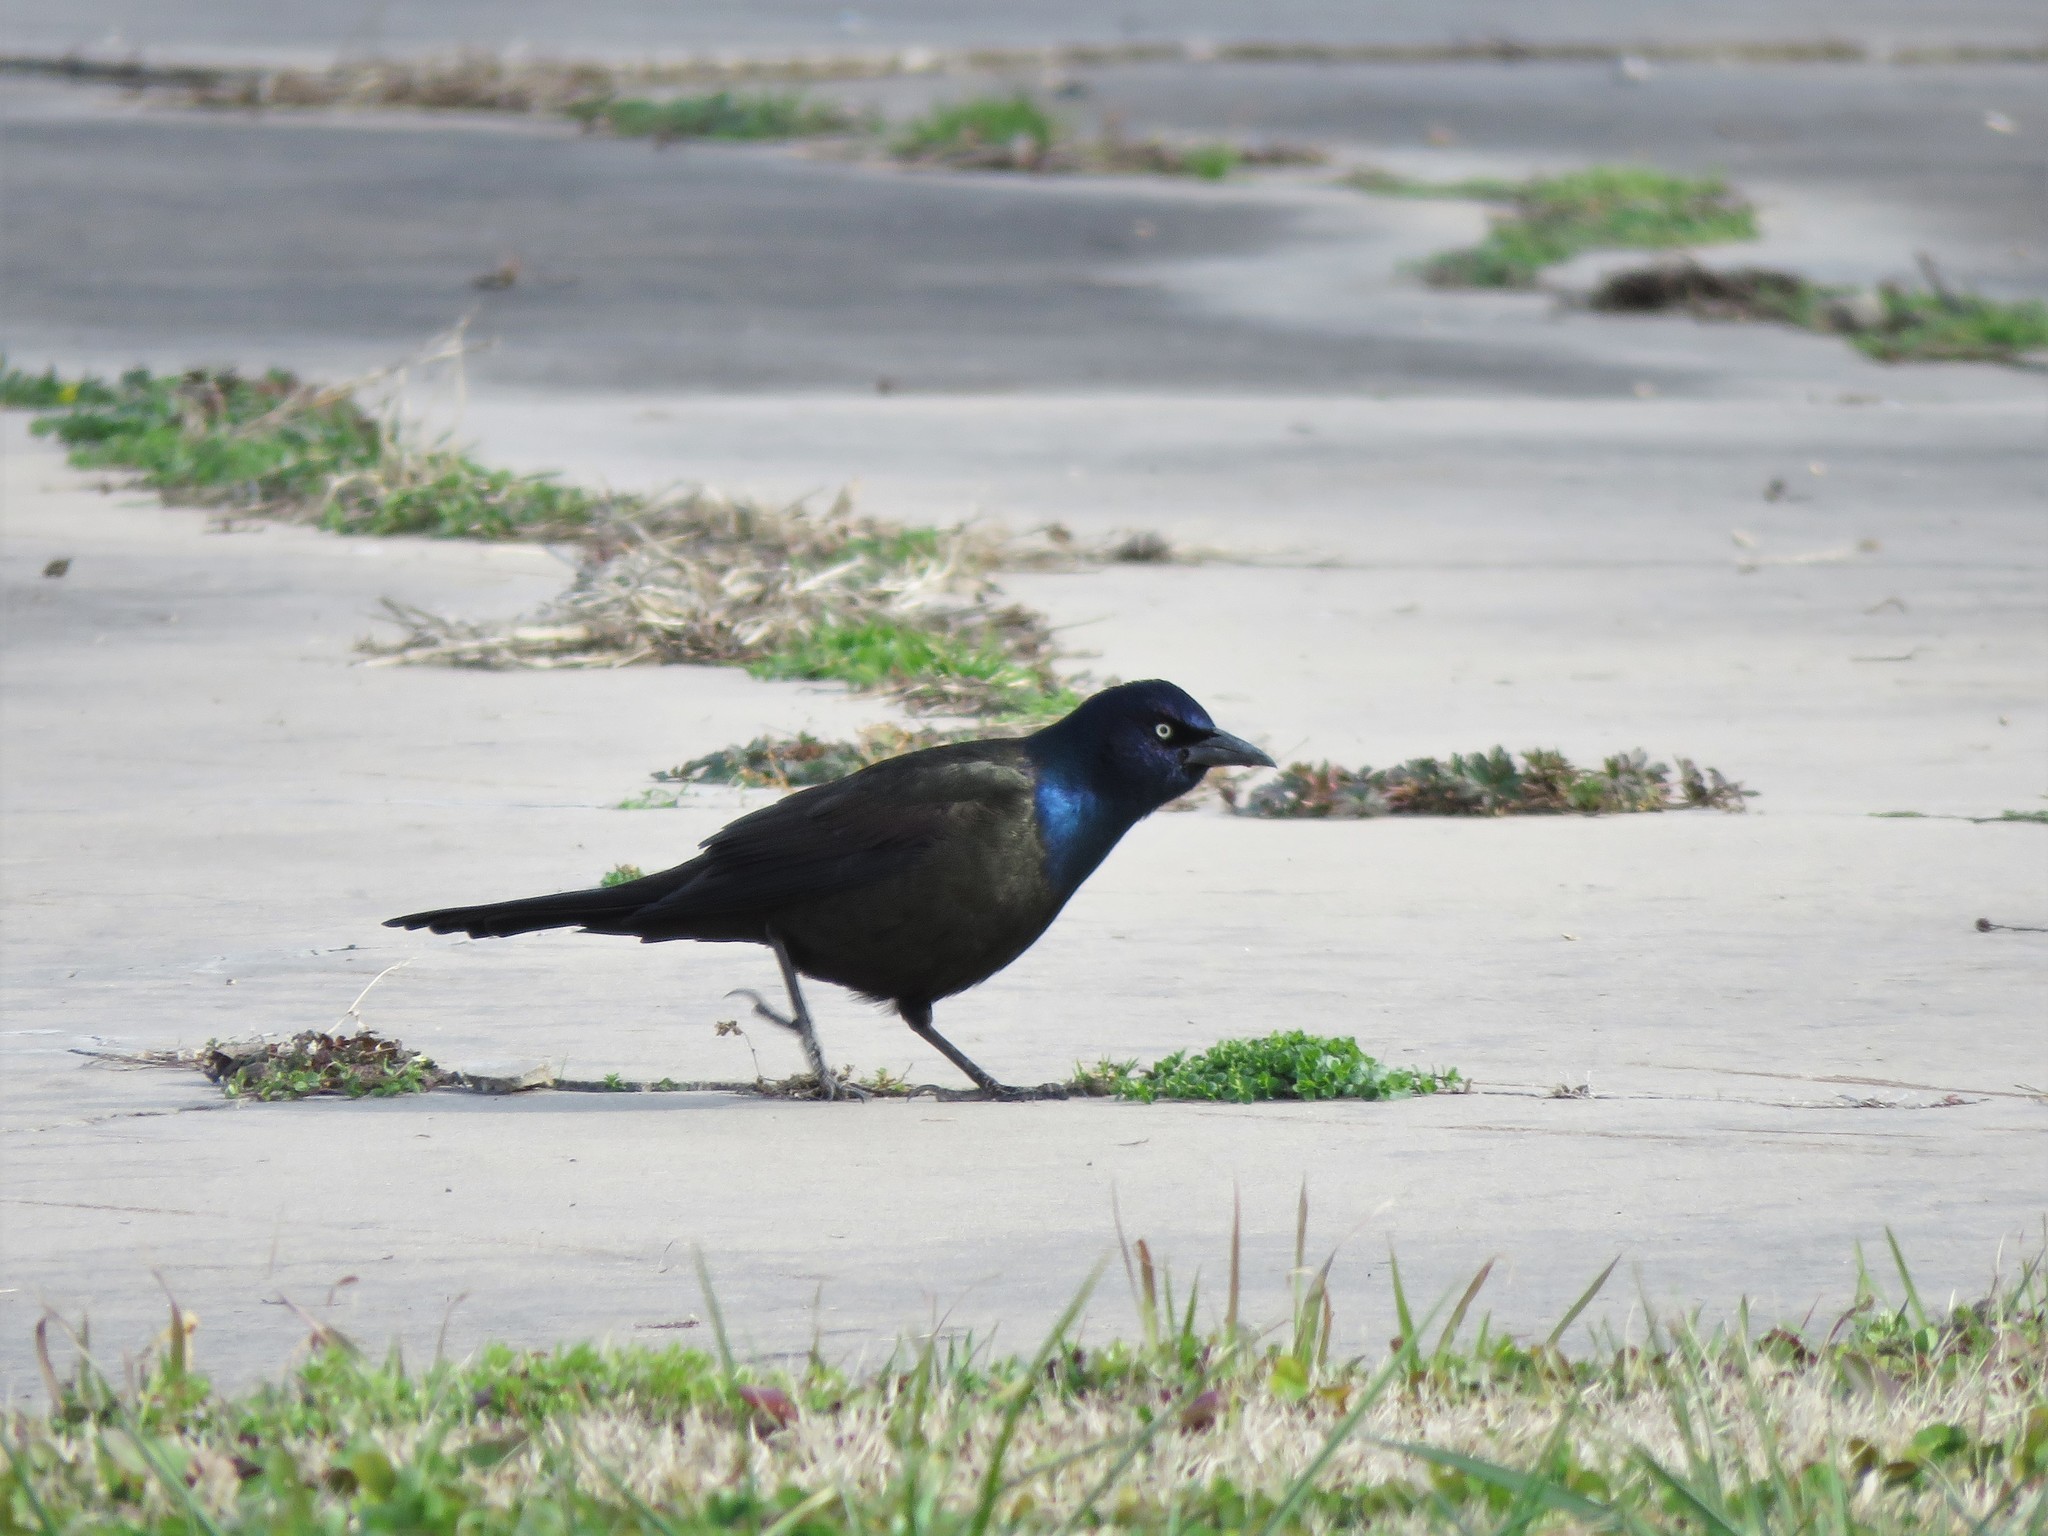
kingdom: Animalia
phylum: Chordata
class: Aves
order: Passeriformes
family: Icteridae
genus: Quiscalus
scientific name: Quiscalus quiscula
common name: Common grackle
